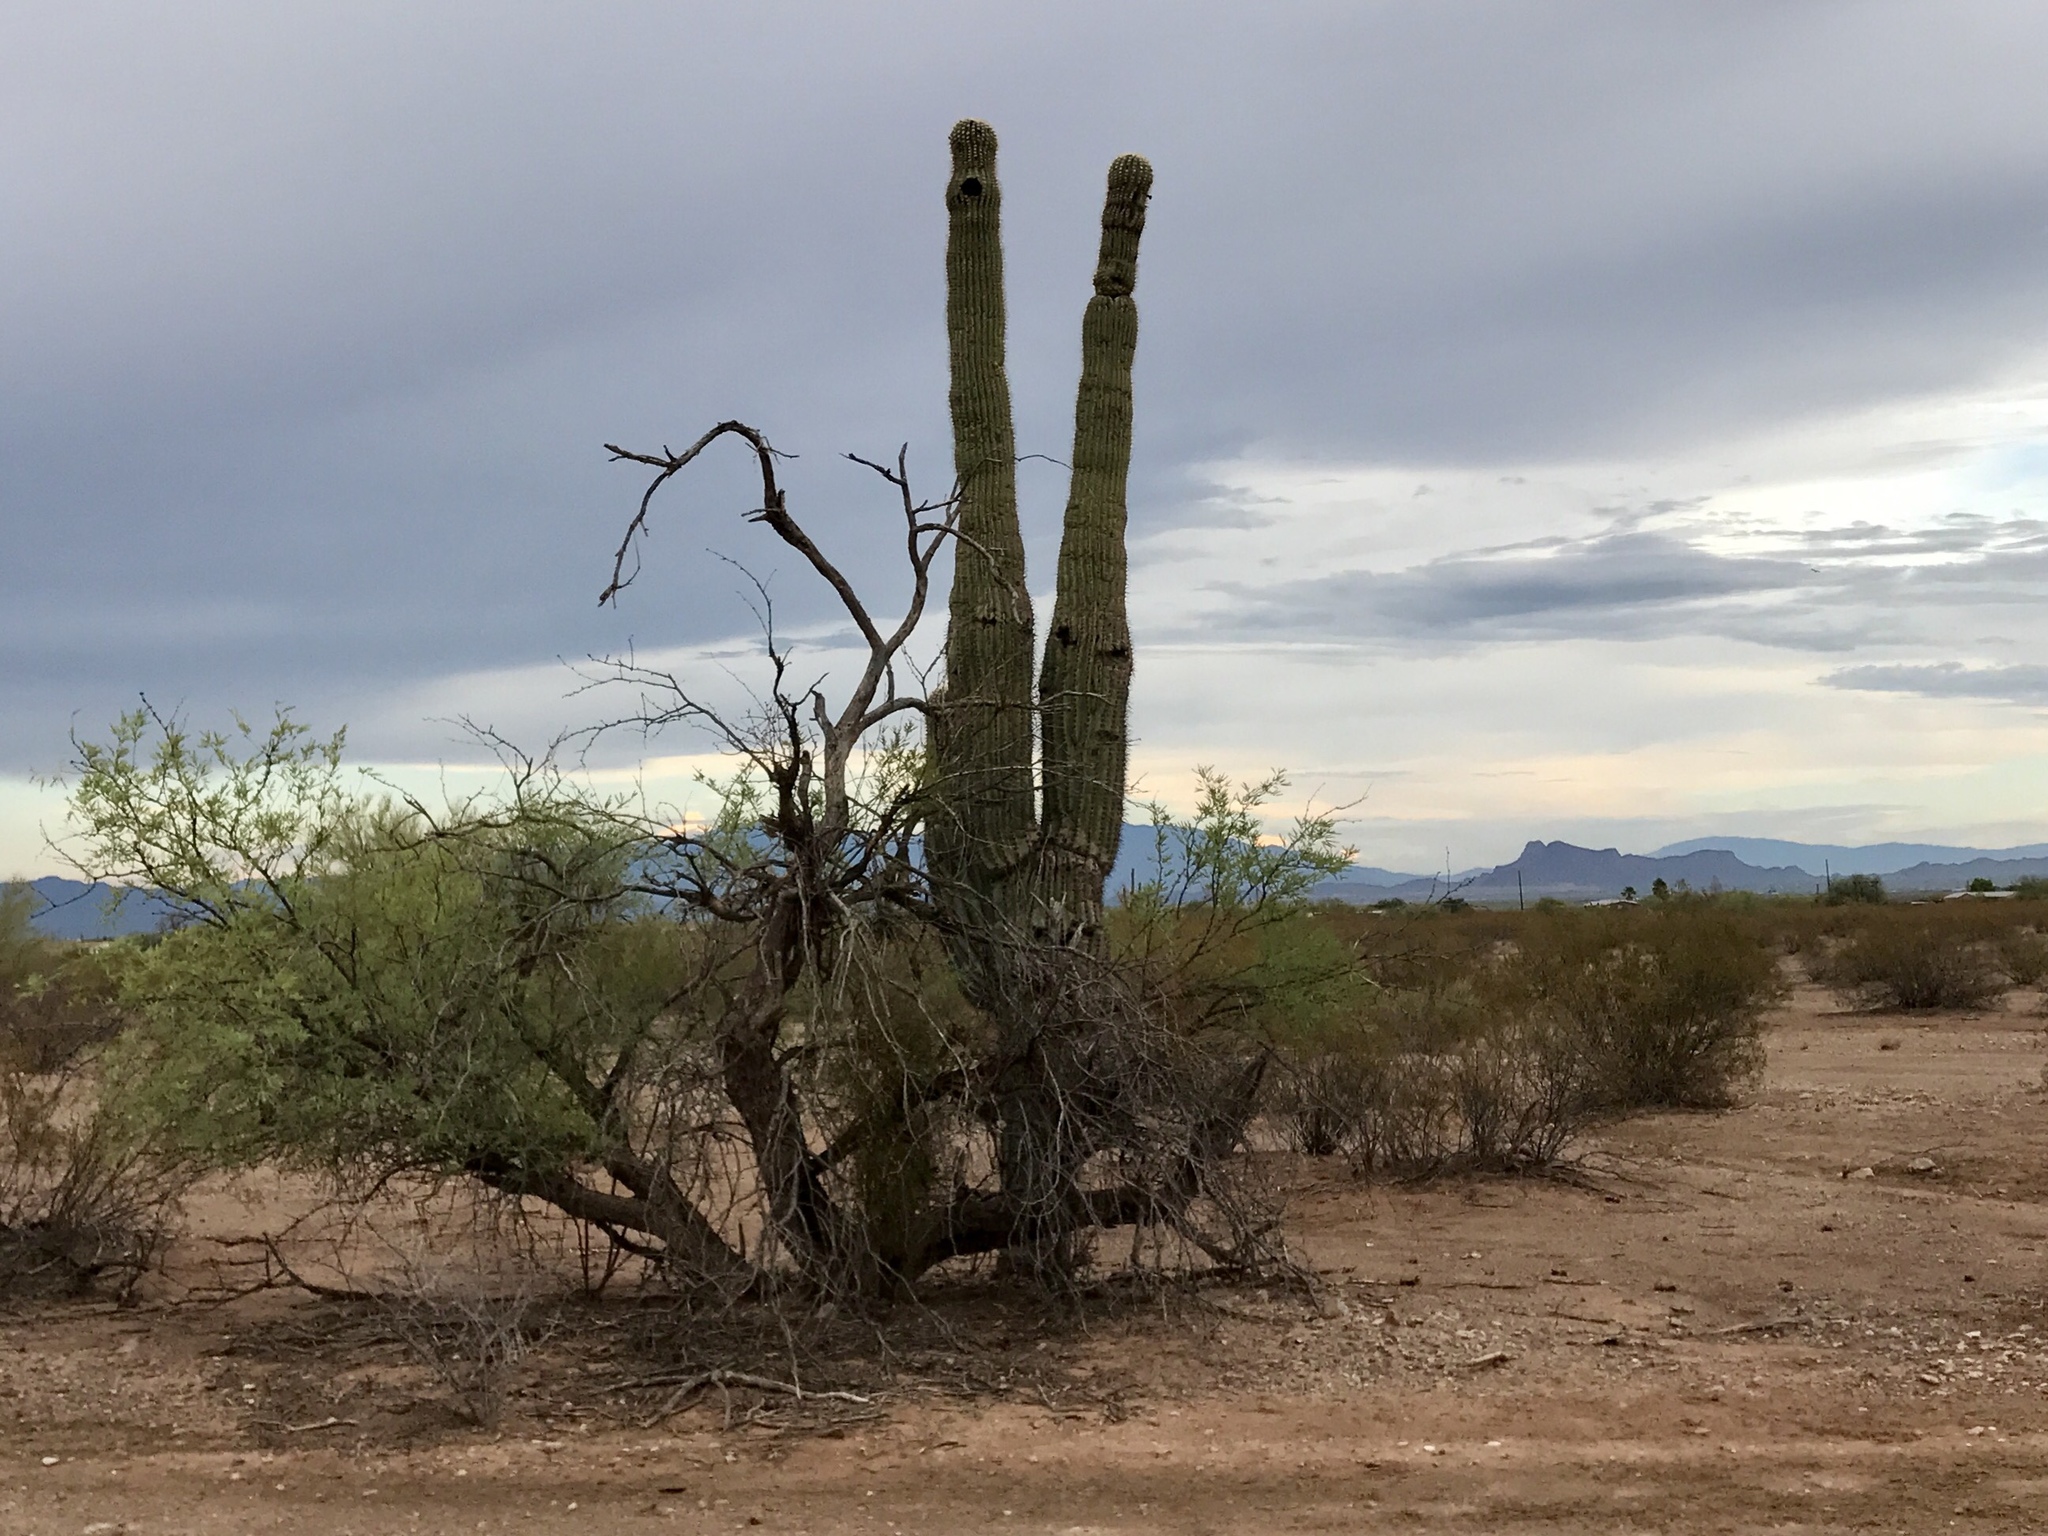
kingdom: Plantae
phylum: Tracheophyta
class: Magnoliopsida
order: Caryophyllales
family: Cactaceae
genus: Carnegiea
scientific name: Carnegiea gigantea
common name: Saguaro
